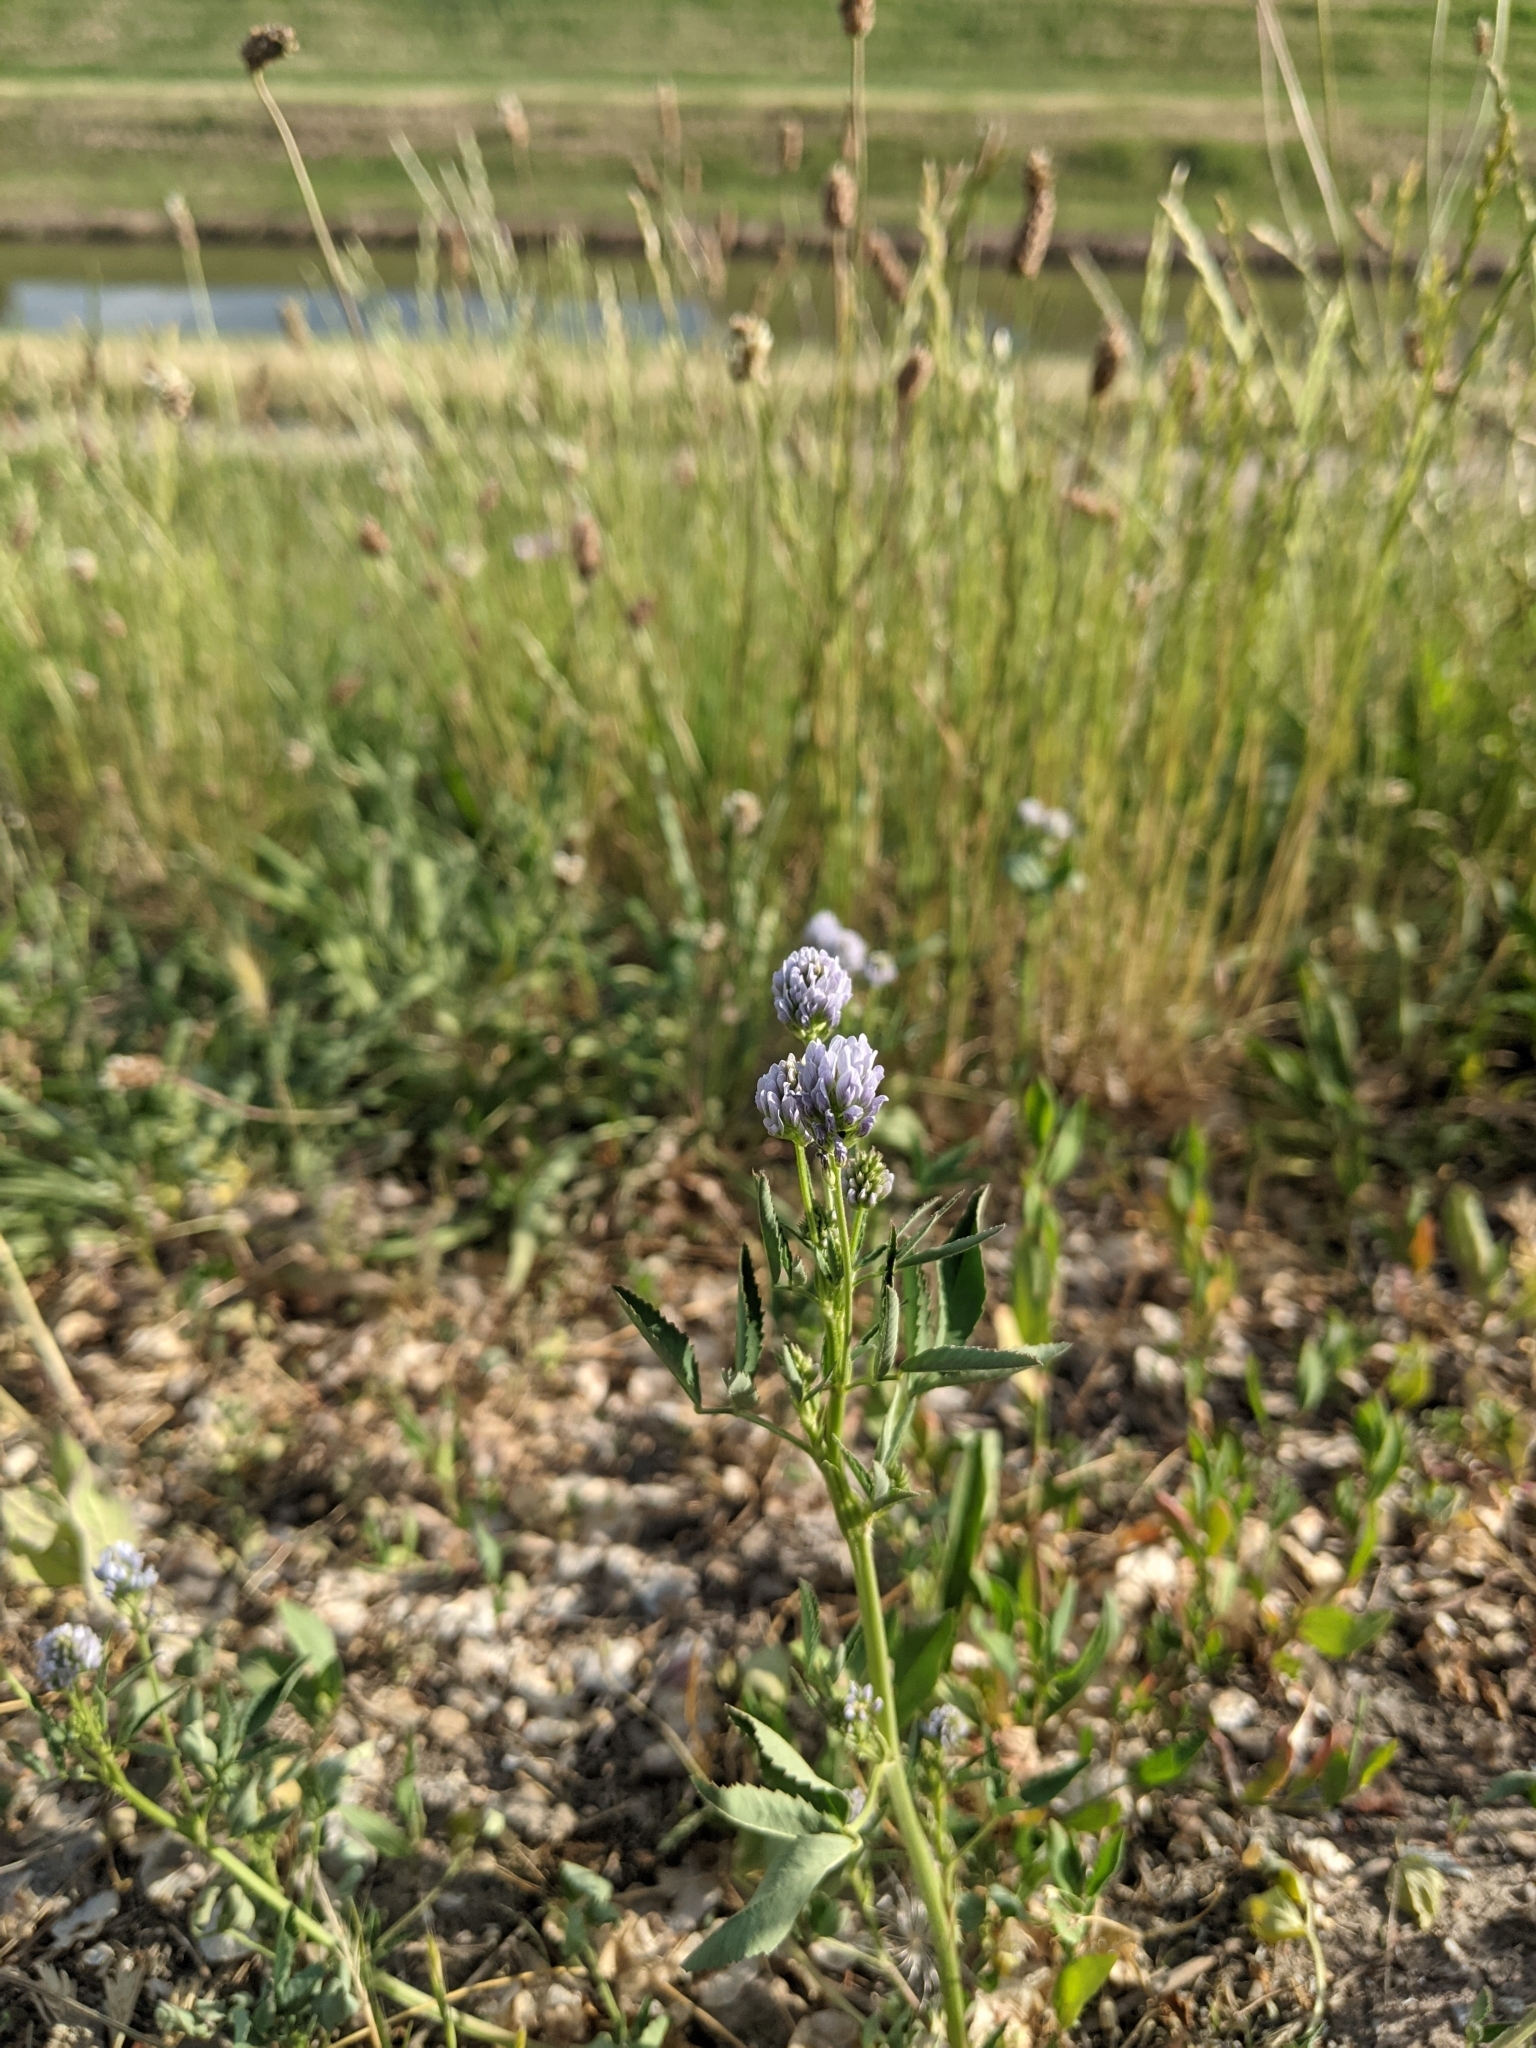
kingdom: Plantae
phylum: Tracheophyta
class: Magnoliopsida
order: Fabales
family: Fabaceae
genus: Trigonella
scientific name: Trigonella caerulea
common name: Blue fenugreek
